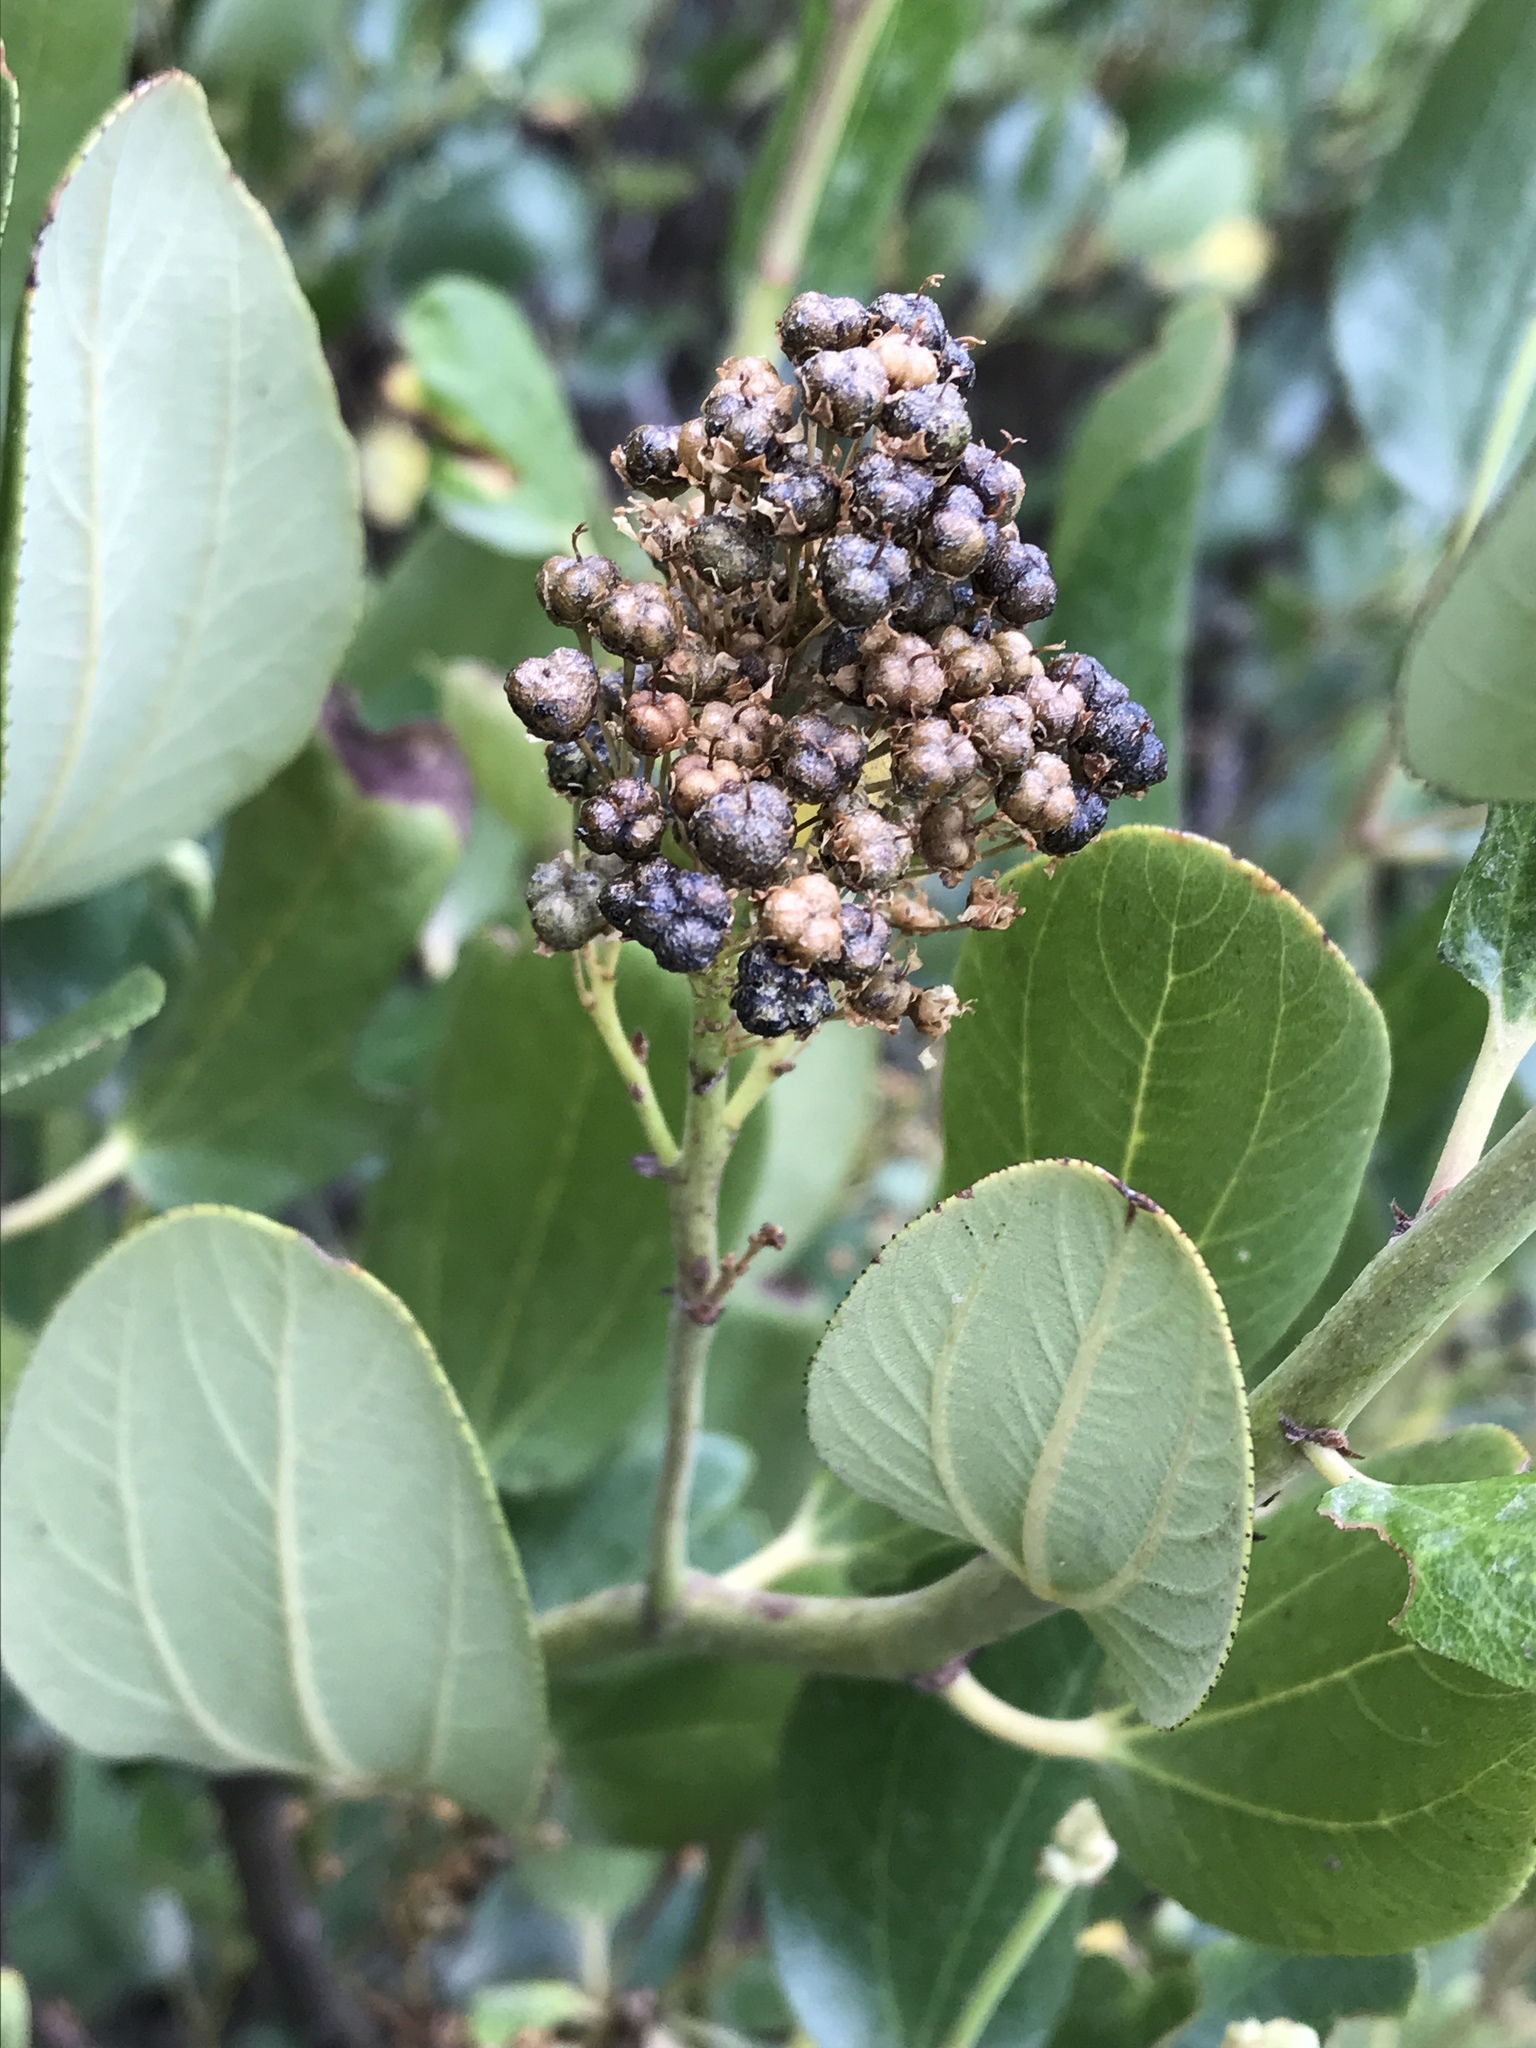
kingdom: Plantae
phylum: Tracheophyta
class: Magnoliopsida
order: Rosales
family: Rhamnaceae
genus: Ceanothus
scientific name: Ceanothus velutinus
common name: Snowbrush
